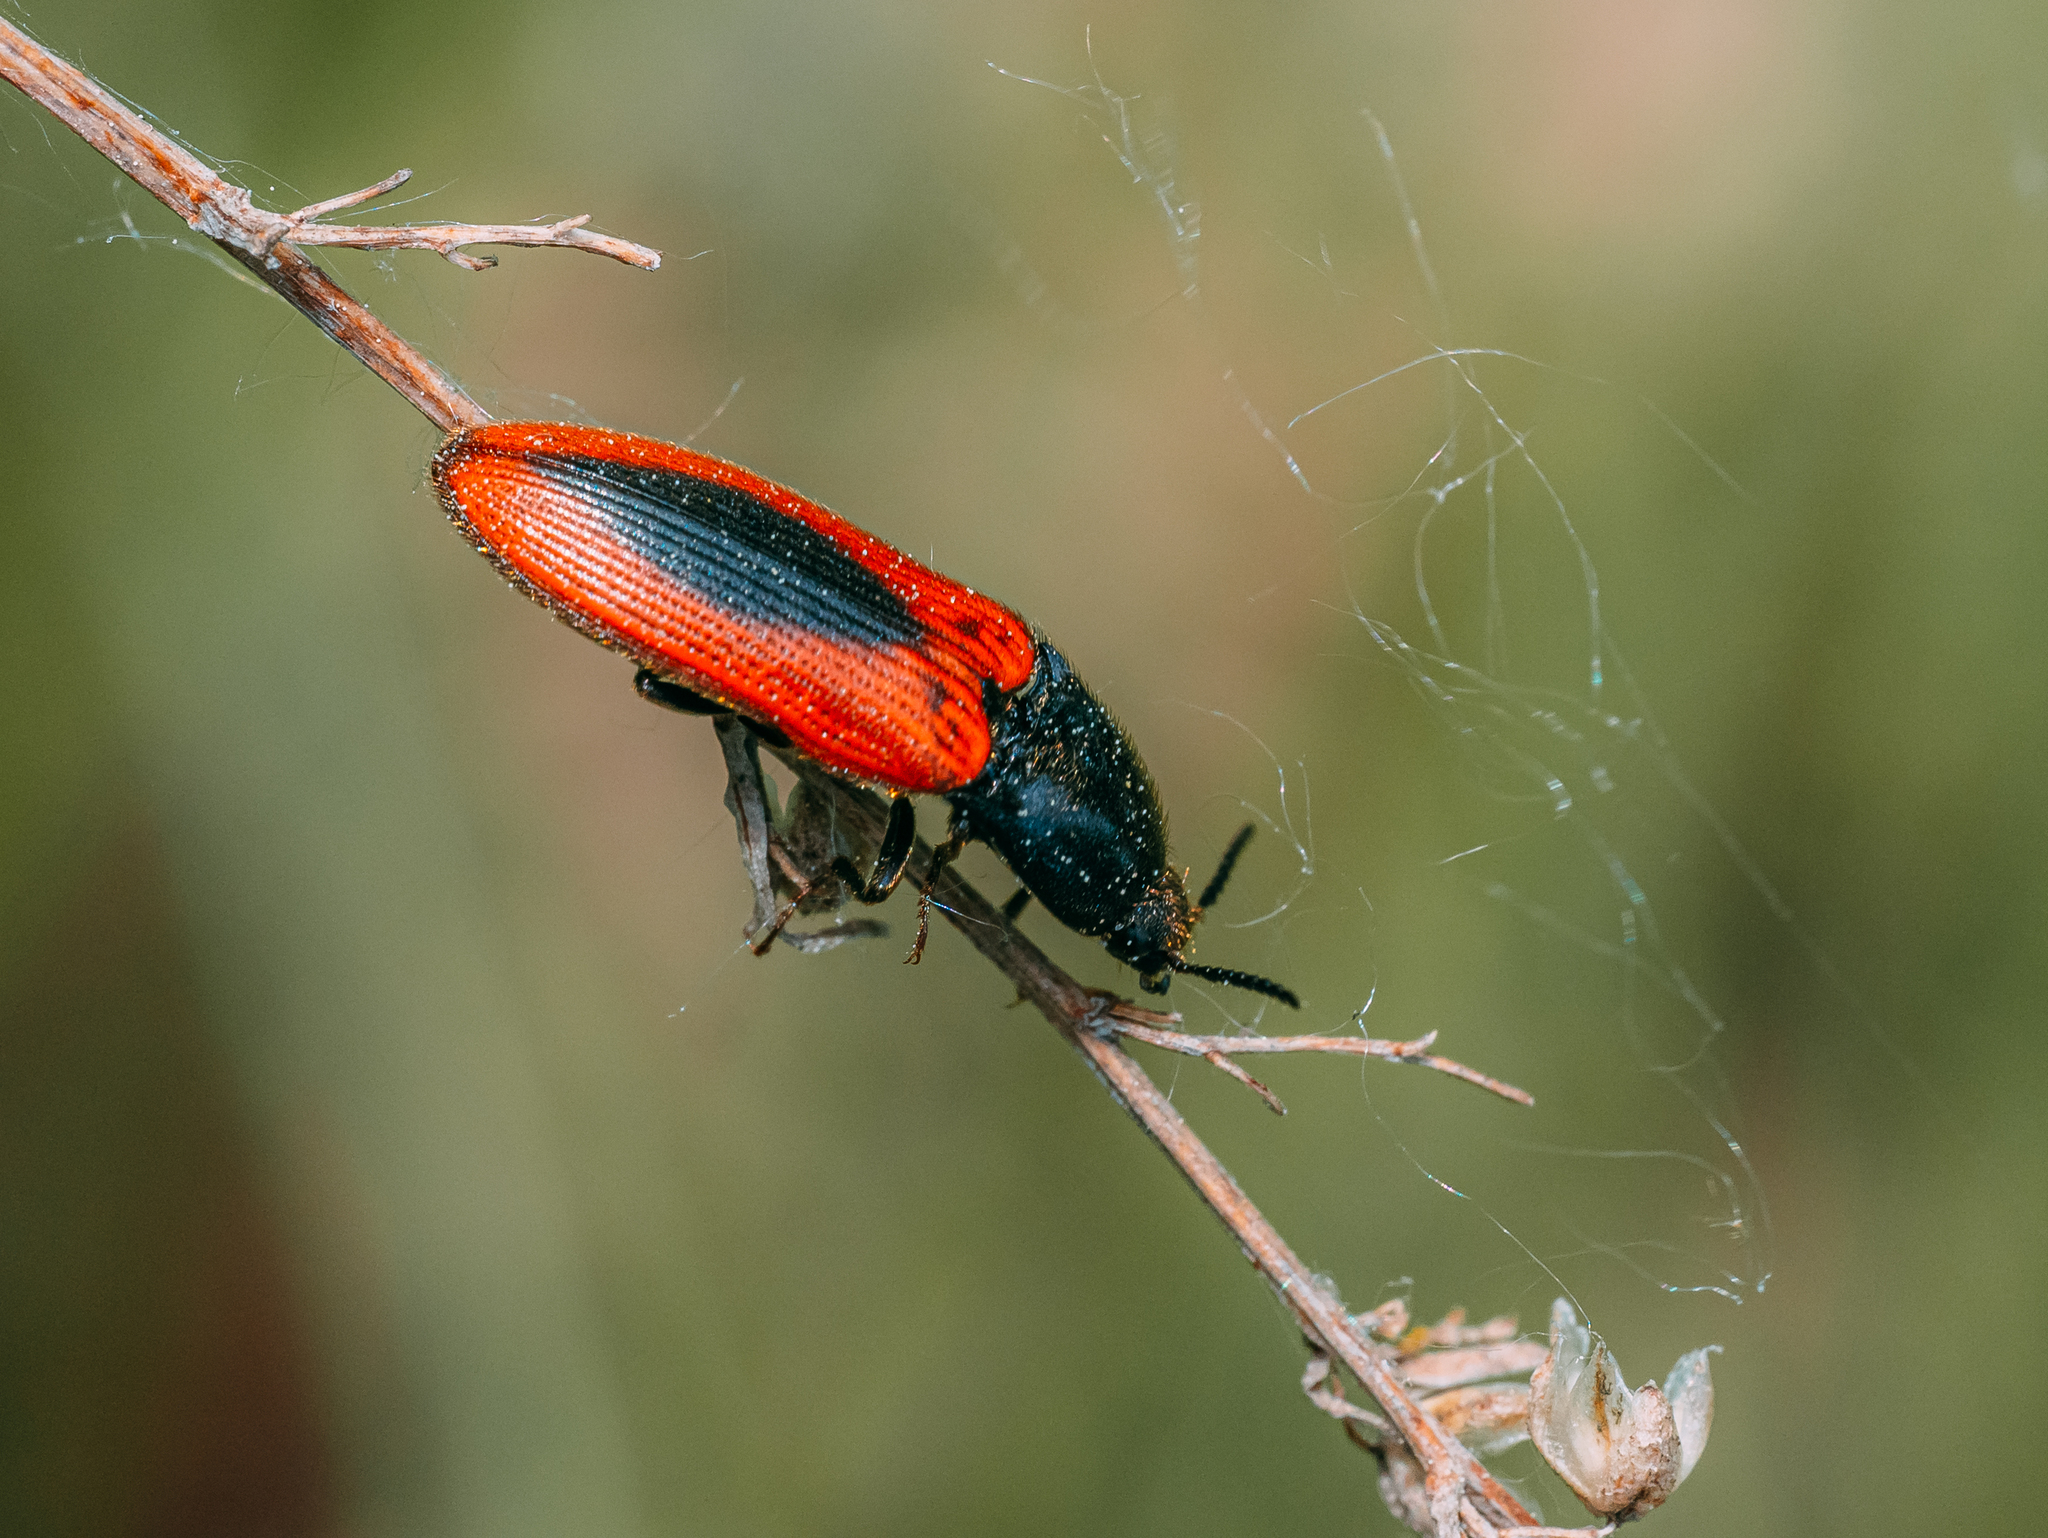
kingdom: Animalia
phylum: Arthropoda
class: Insecta
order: Coleoptera
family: Elateridae
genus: Ampedus
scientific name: Ampedus sanguinolentus
